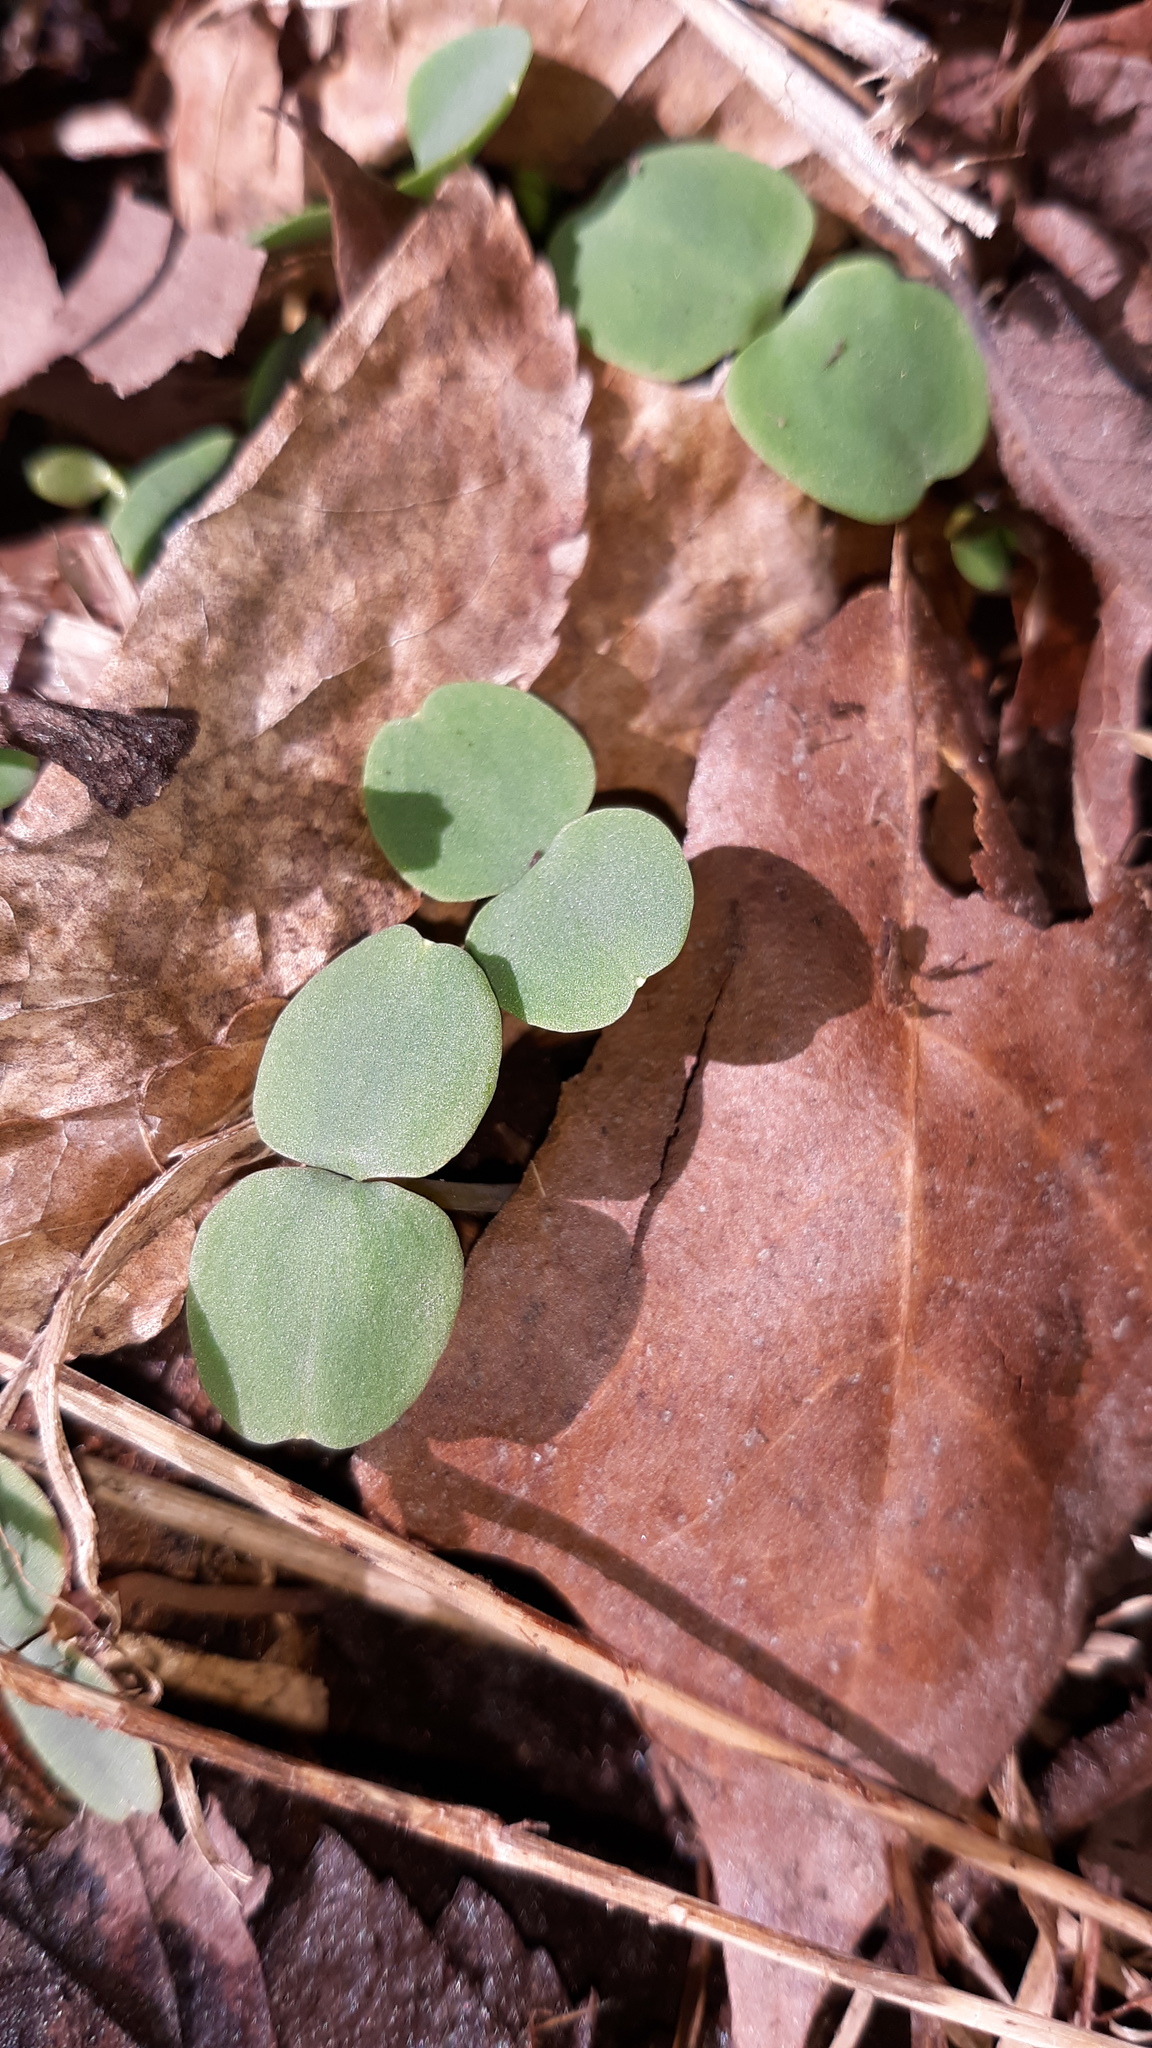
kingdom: Plantae
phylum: Tracheophyta
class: Magnoliopsida
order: Ericales
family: Balsaminaceae
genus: Impatiens
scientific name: Impatiens
